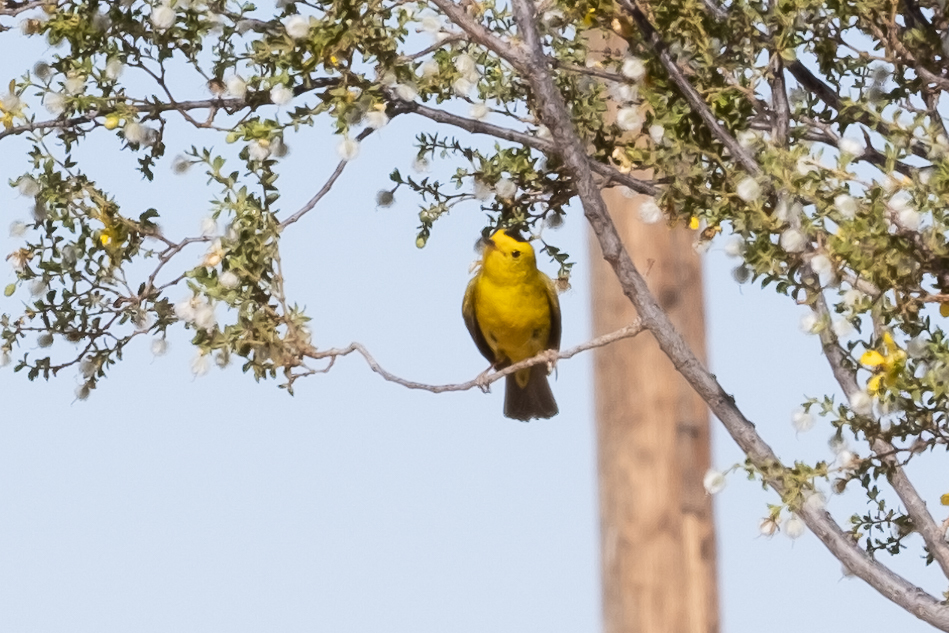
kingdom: Animalia
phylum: Chordata
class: Aves
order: Passeriformes
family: Parulidae
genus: Cardellina
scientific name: Cardellina pusilla
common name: Wilson's warbler
